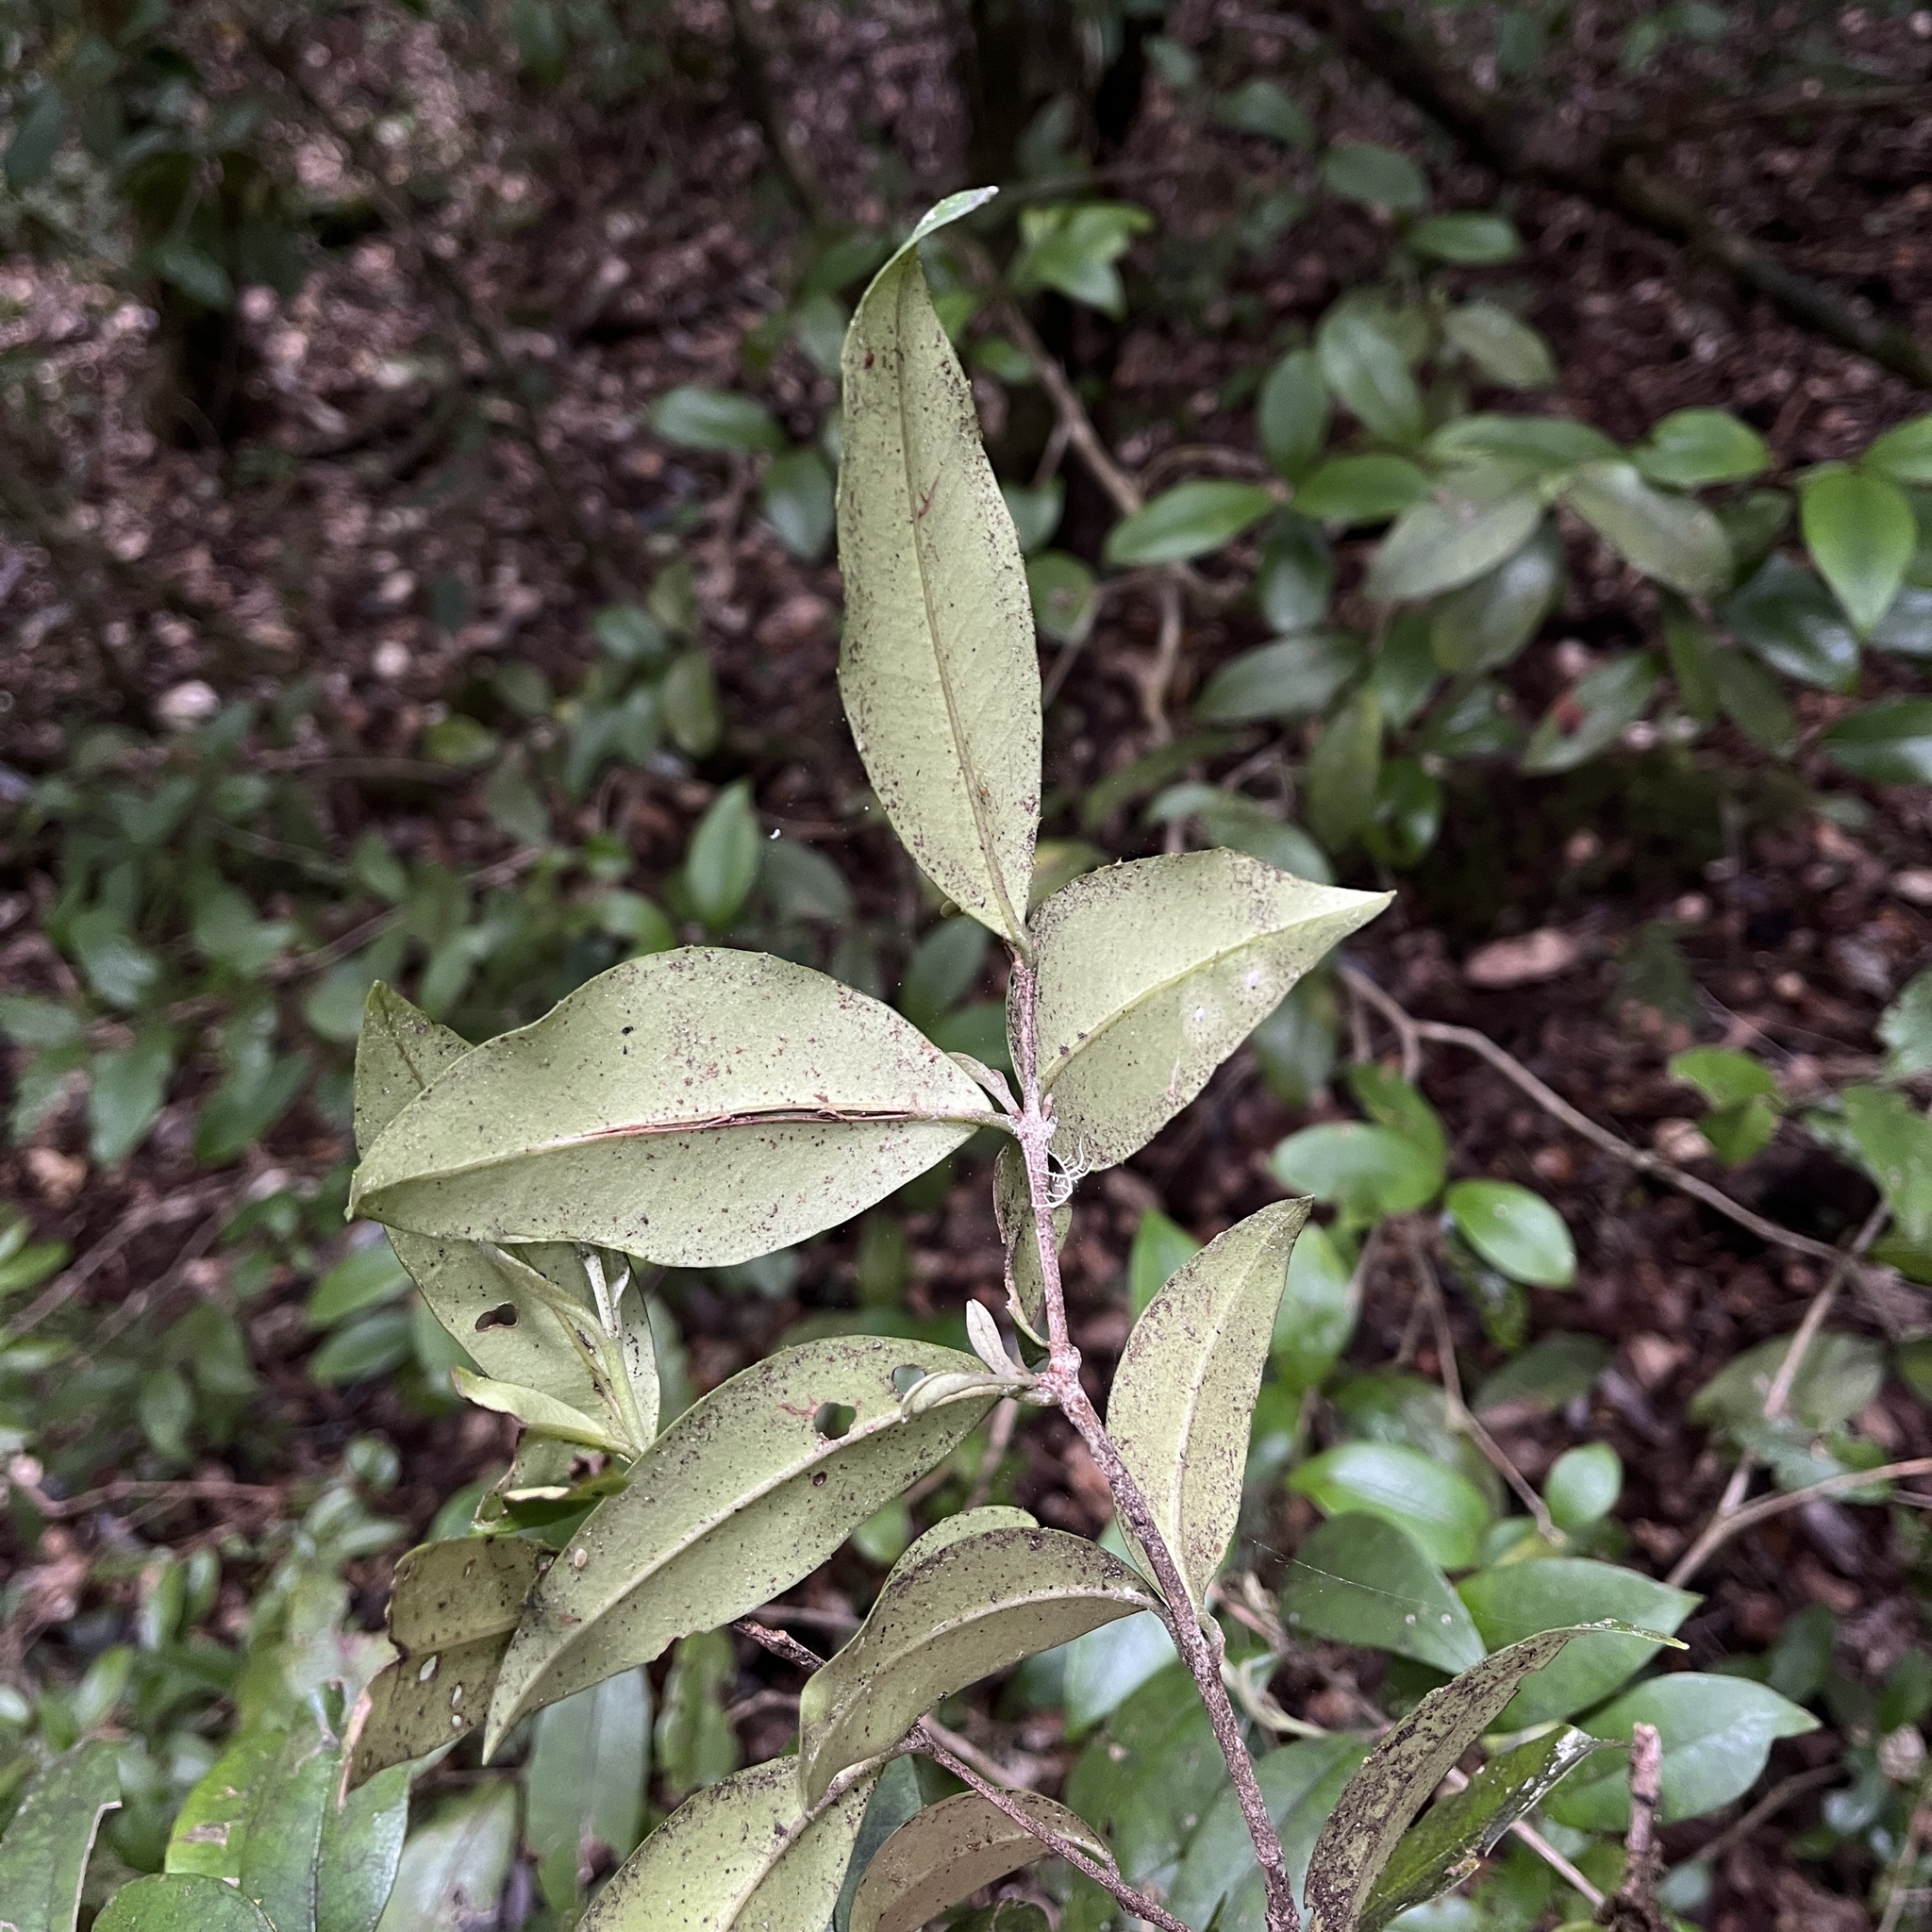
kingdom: Plantae
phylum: Tracheophyta
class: Magnoliopsida
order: Myrtales
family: Myrtaceae
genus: Myrceugenia
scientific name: Myrceugenia planipes
